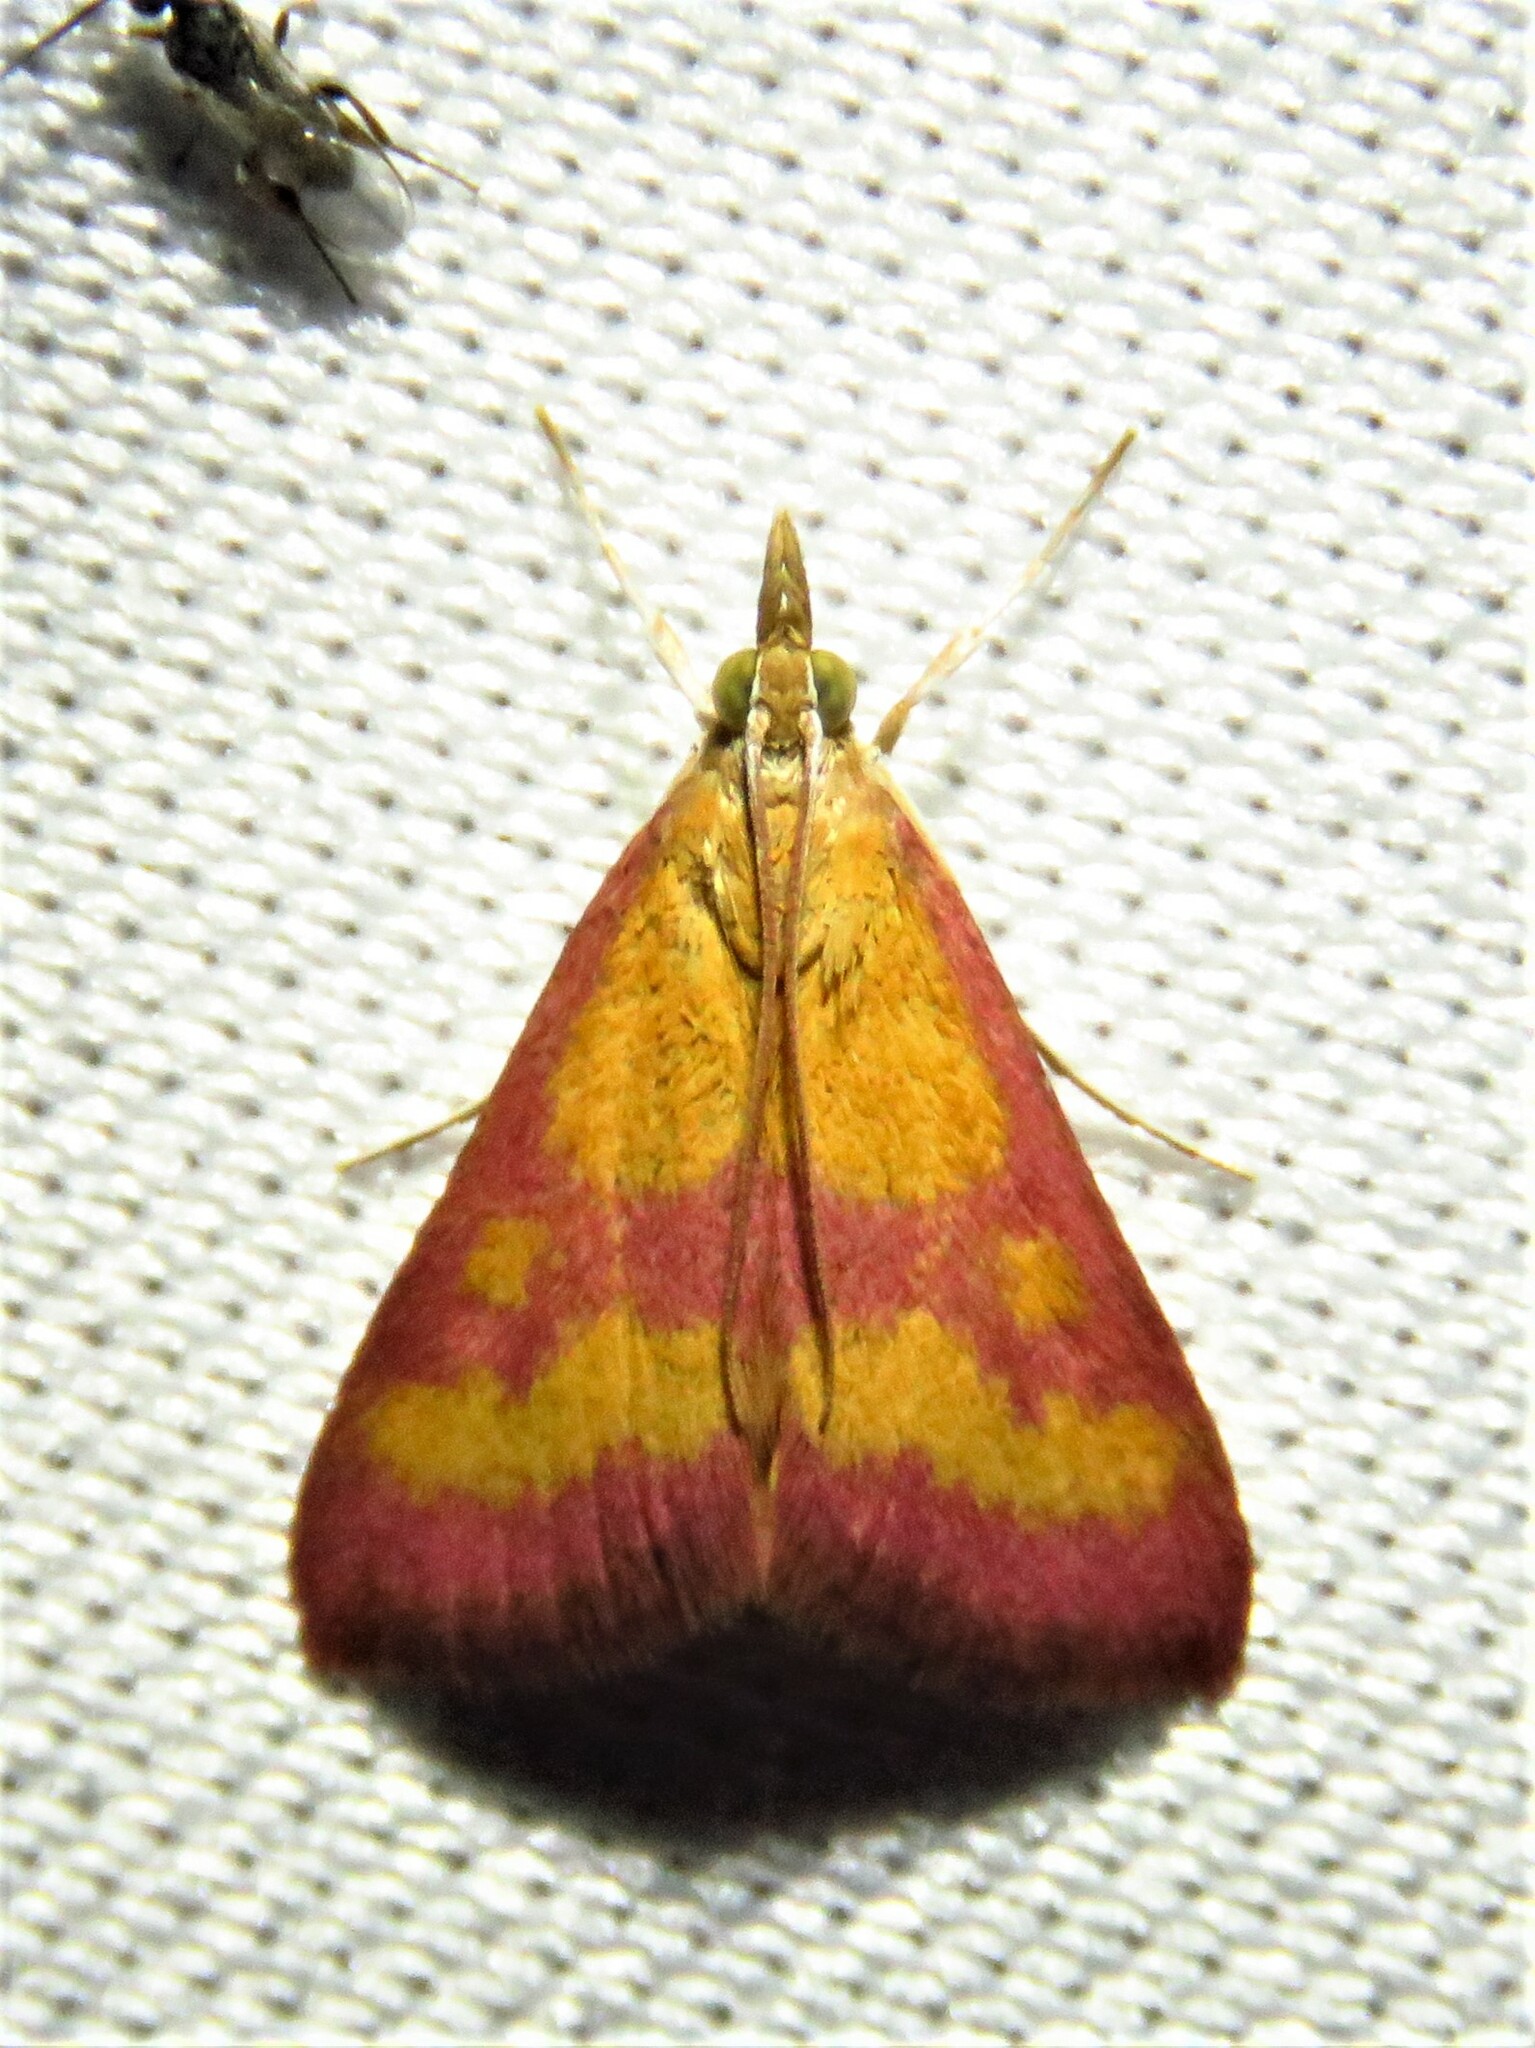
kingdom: Animalia
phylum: Arthropoda
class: Insecta
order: Lepidoptera
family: Crambidae
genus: Pyrausta
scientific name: Pyrausta laticlavia
